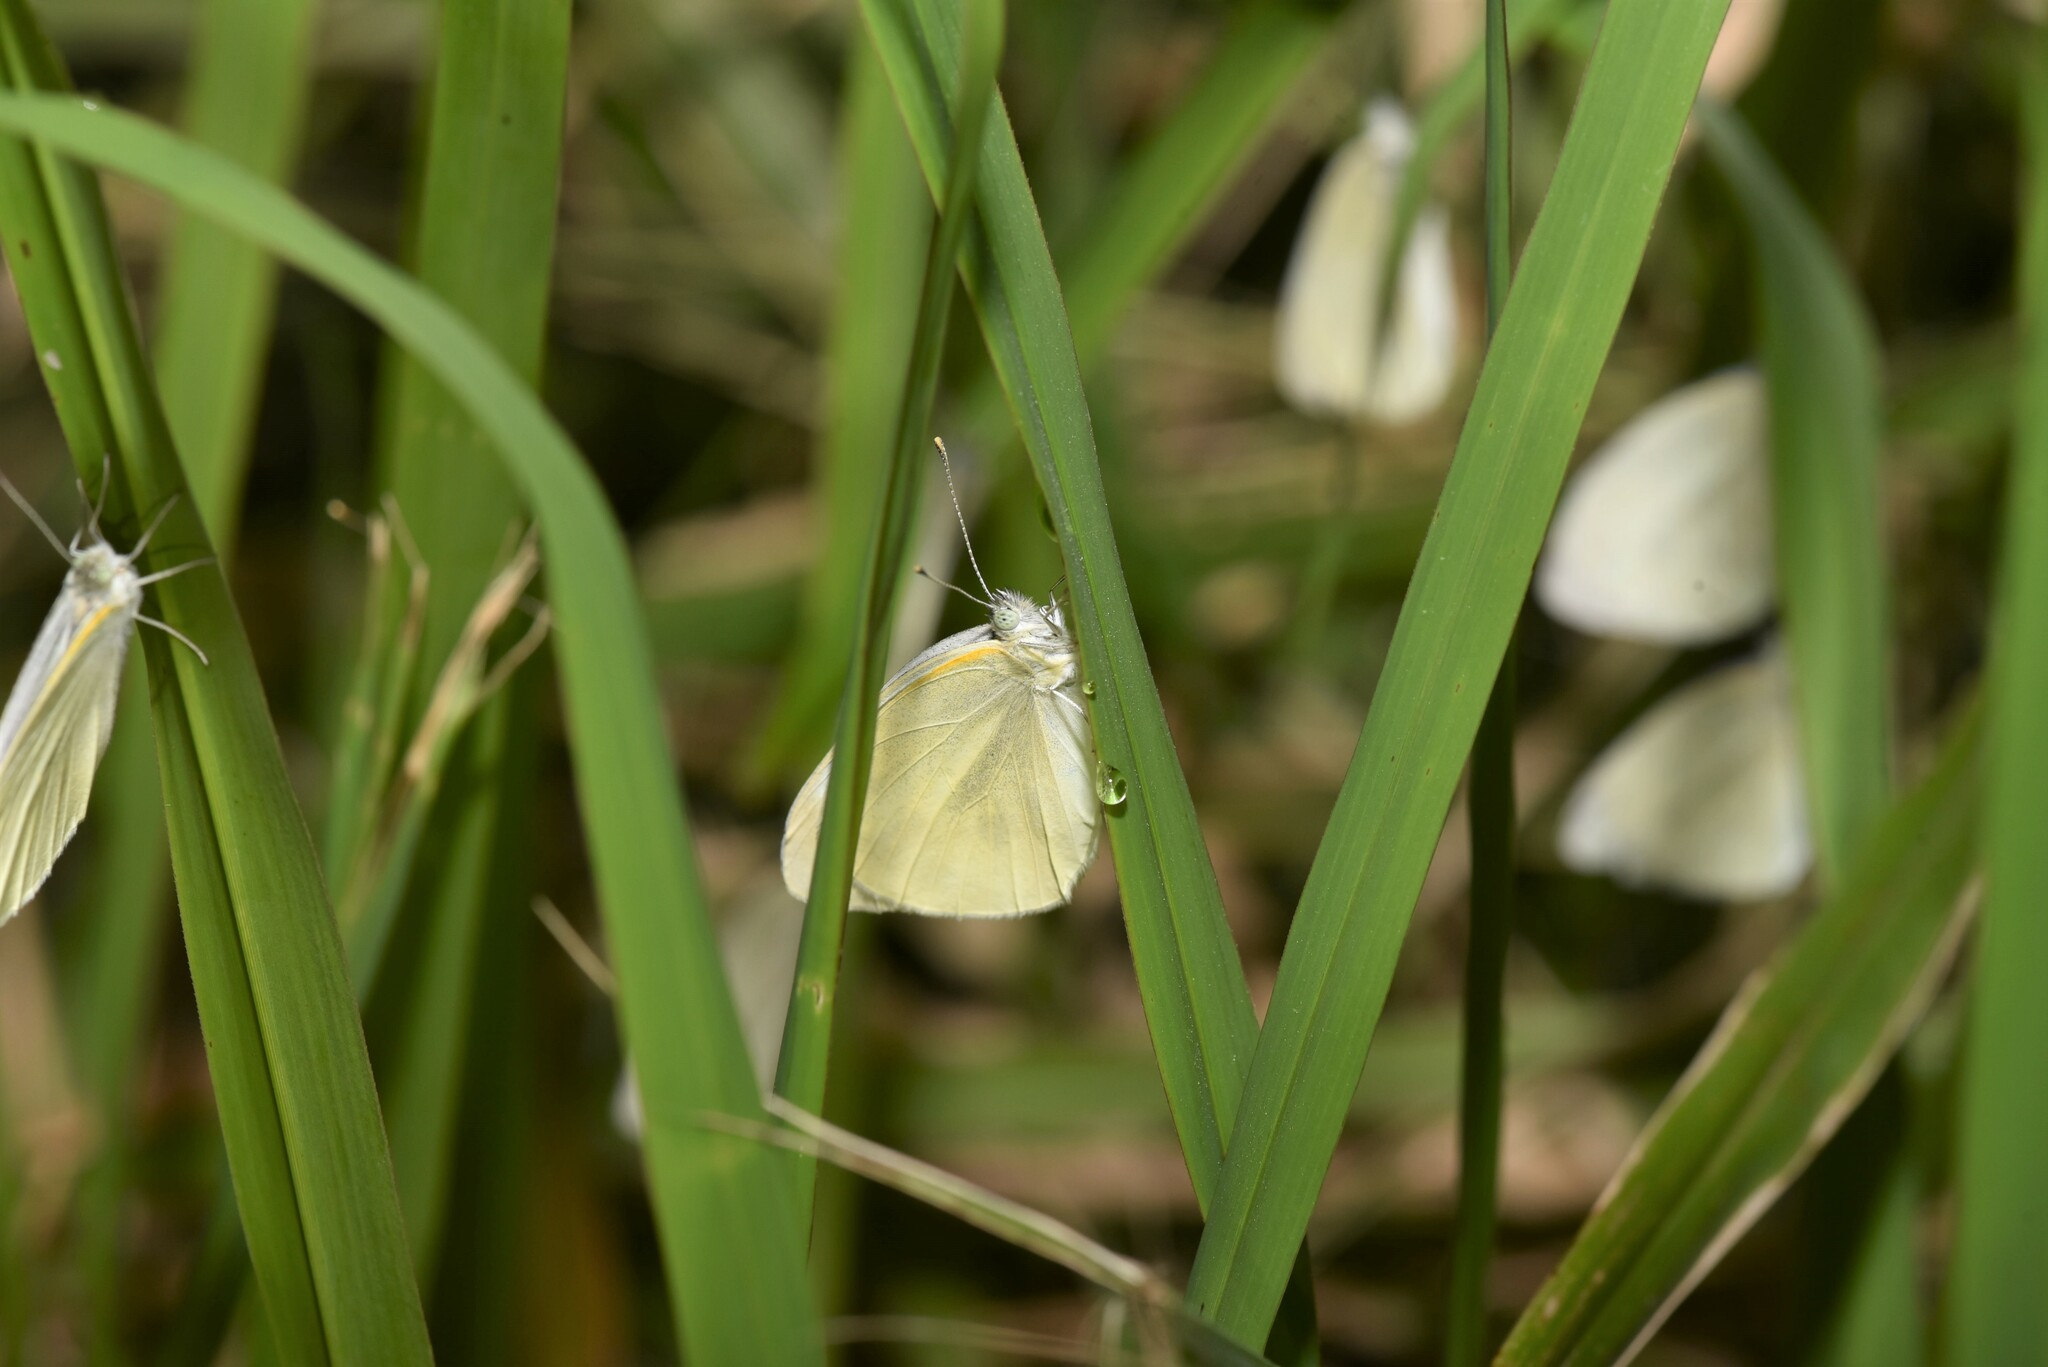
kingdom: Animalia
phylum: Arthropoda
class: Insecta
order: Lepidoptera
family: Pieridae
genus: Pieris
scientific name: Pieris rapae
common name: Small white
